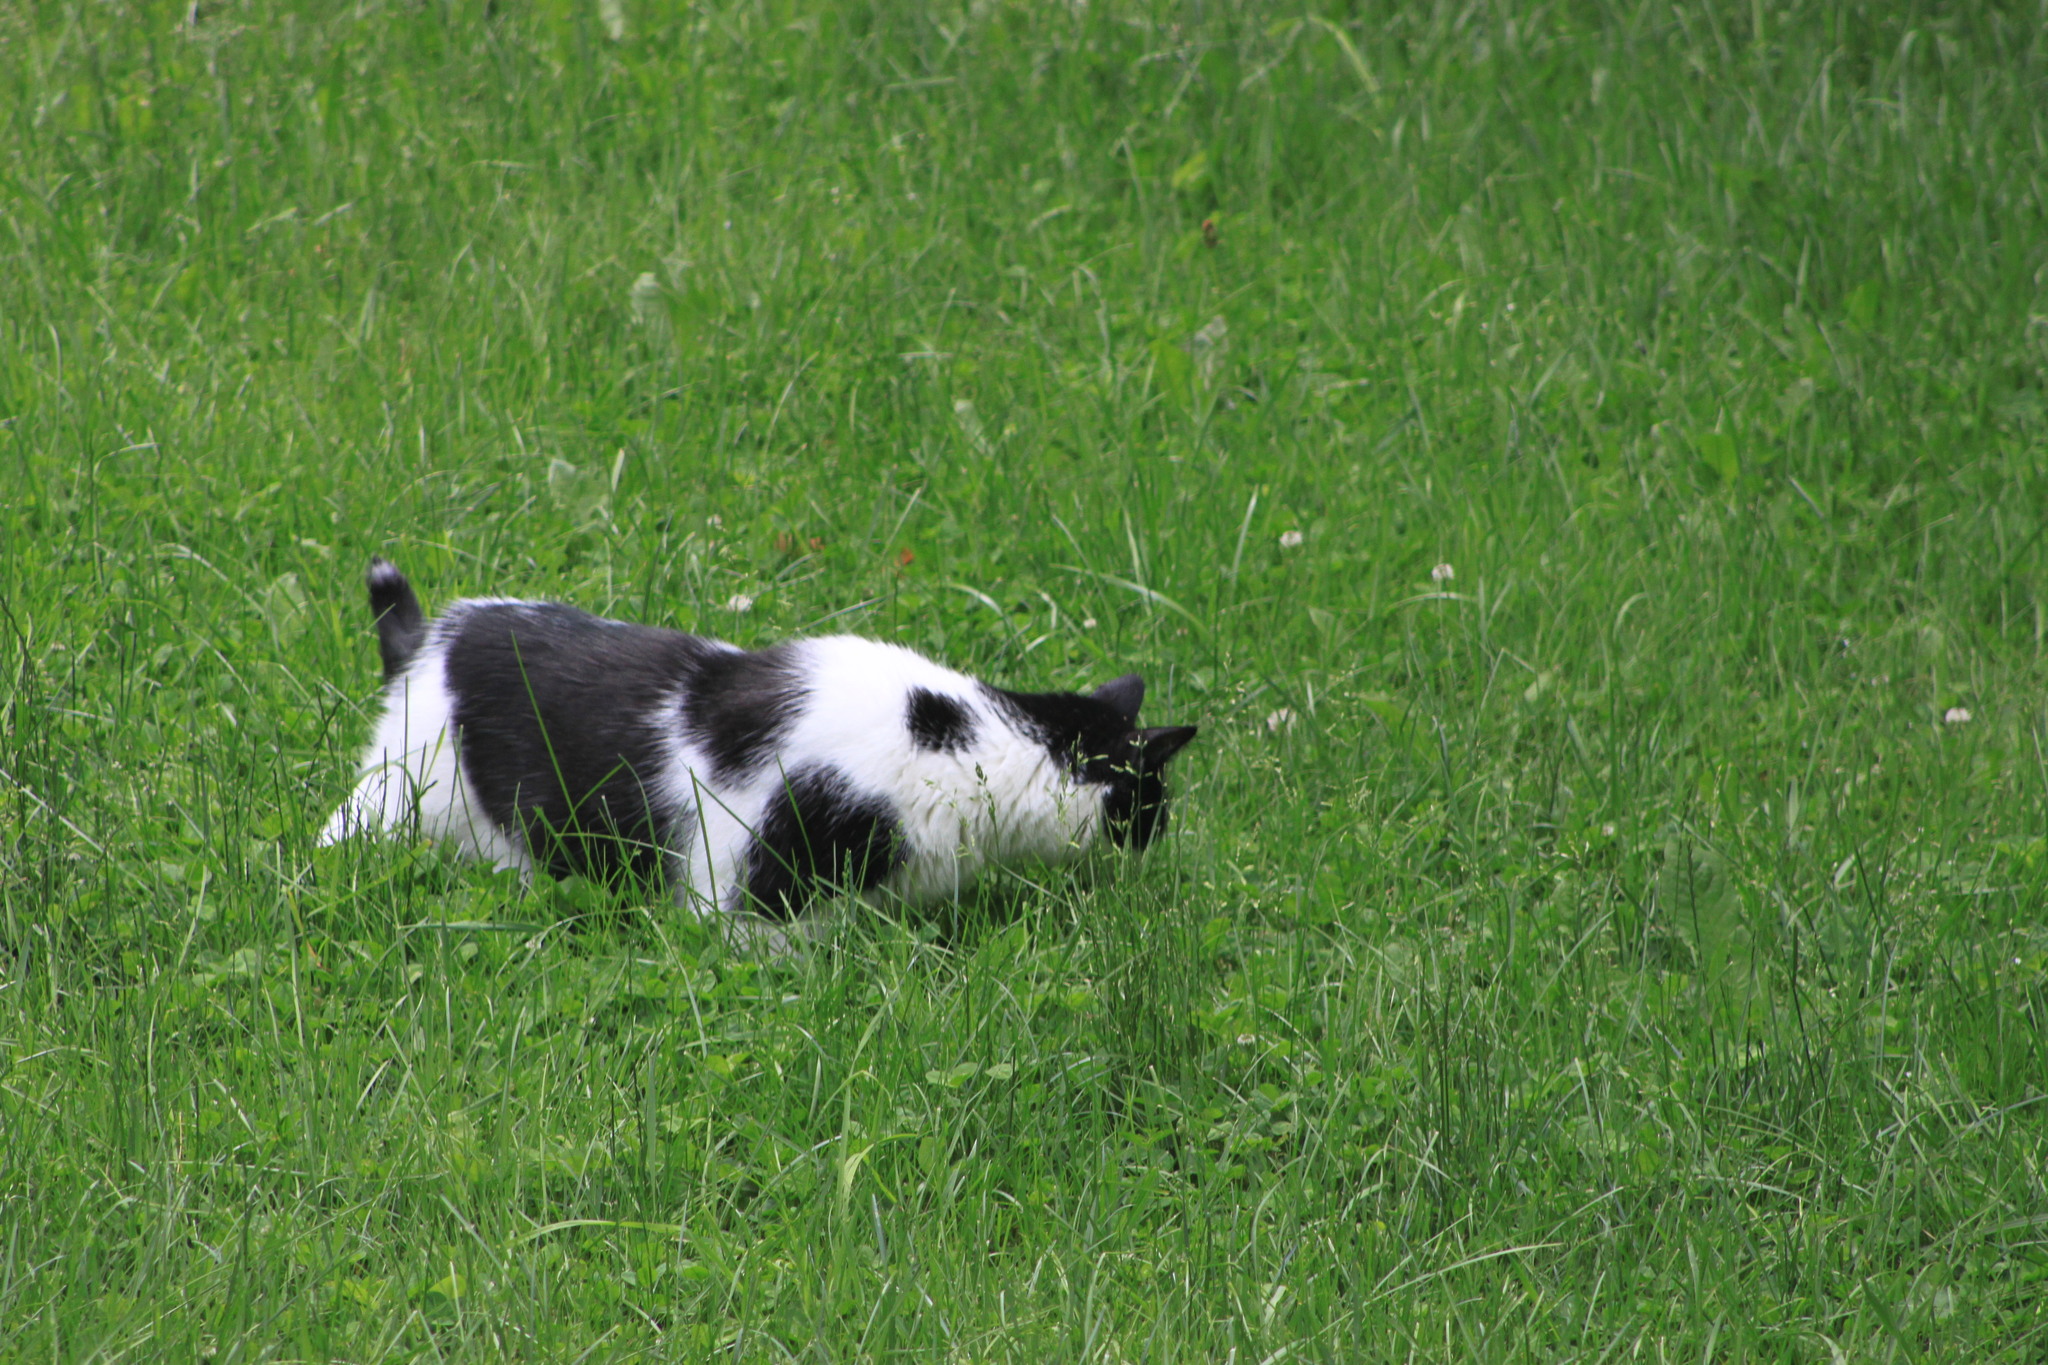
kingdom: Animalia
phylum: Chordata
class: Mammalia
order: Carnivora
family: Felidae
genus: Felis
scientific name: Felis catus
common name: Domestic cat
